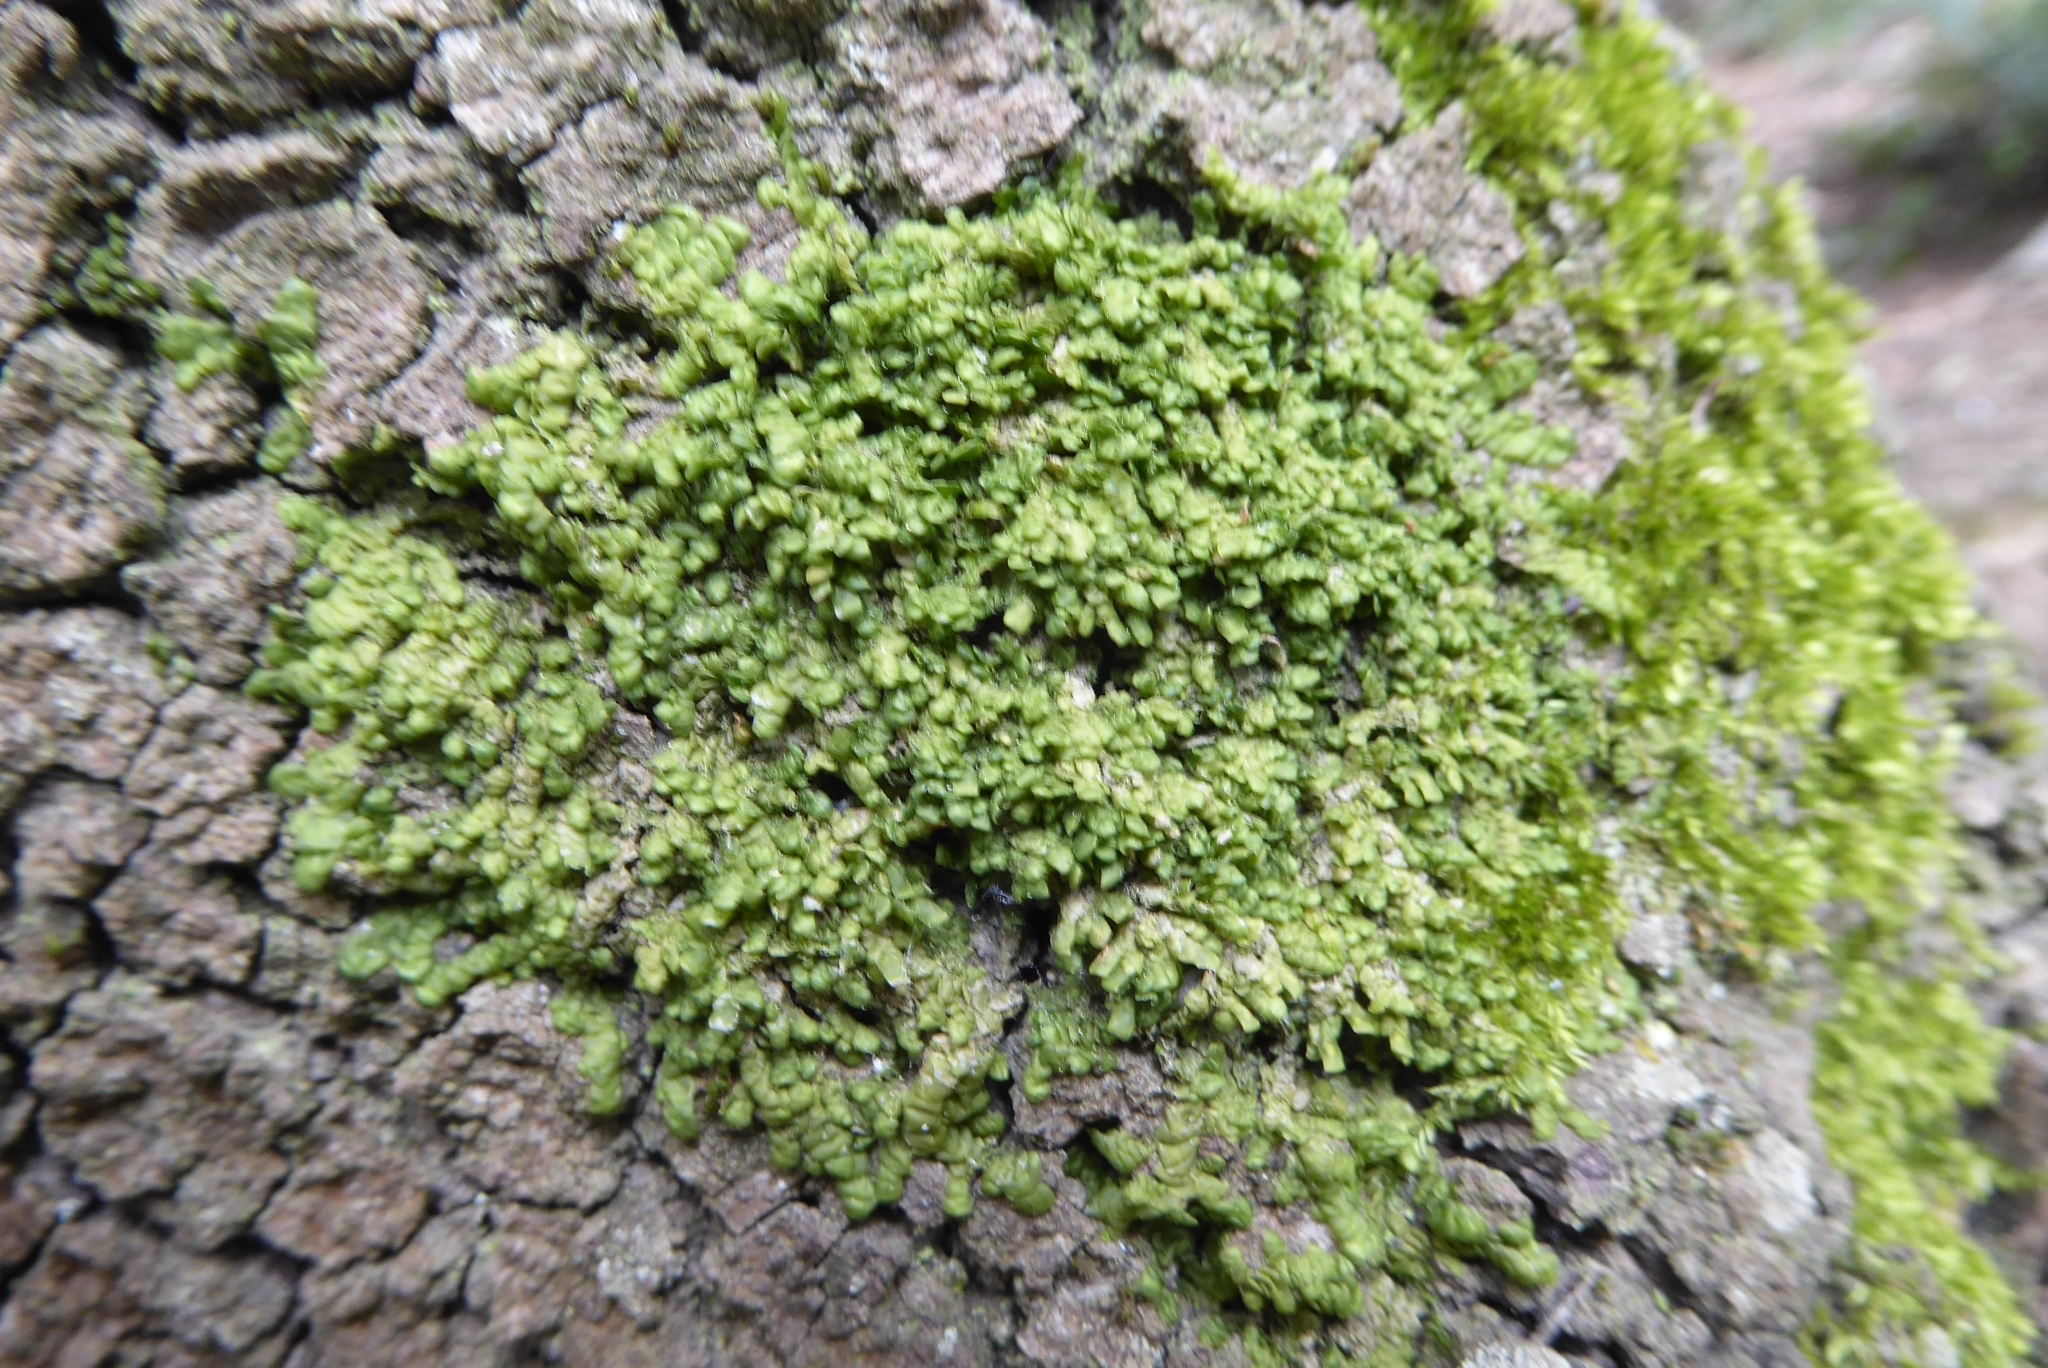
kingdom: Plantae
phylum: Marchantiophyta
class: Jungermanniopsida
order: Porellales
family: Radulaceae
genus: Radula
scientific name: Radula complanata
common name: Flat-leaved scalewort
